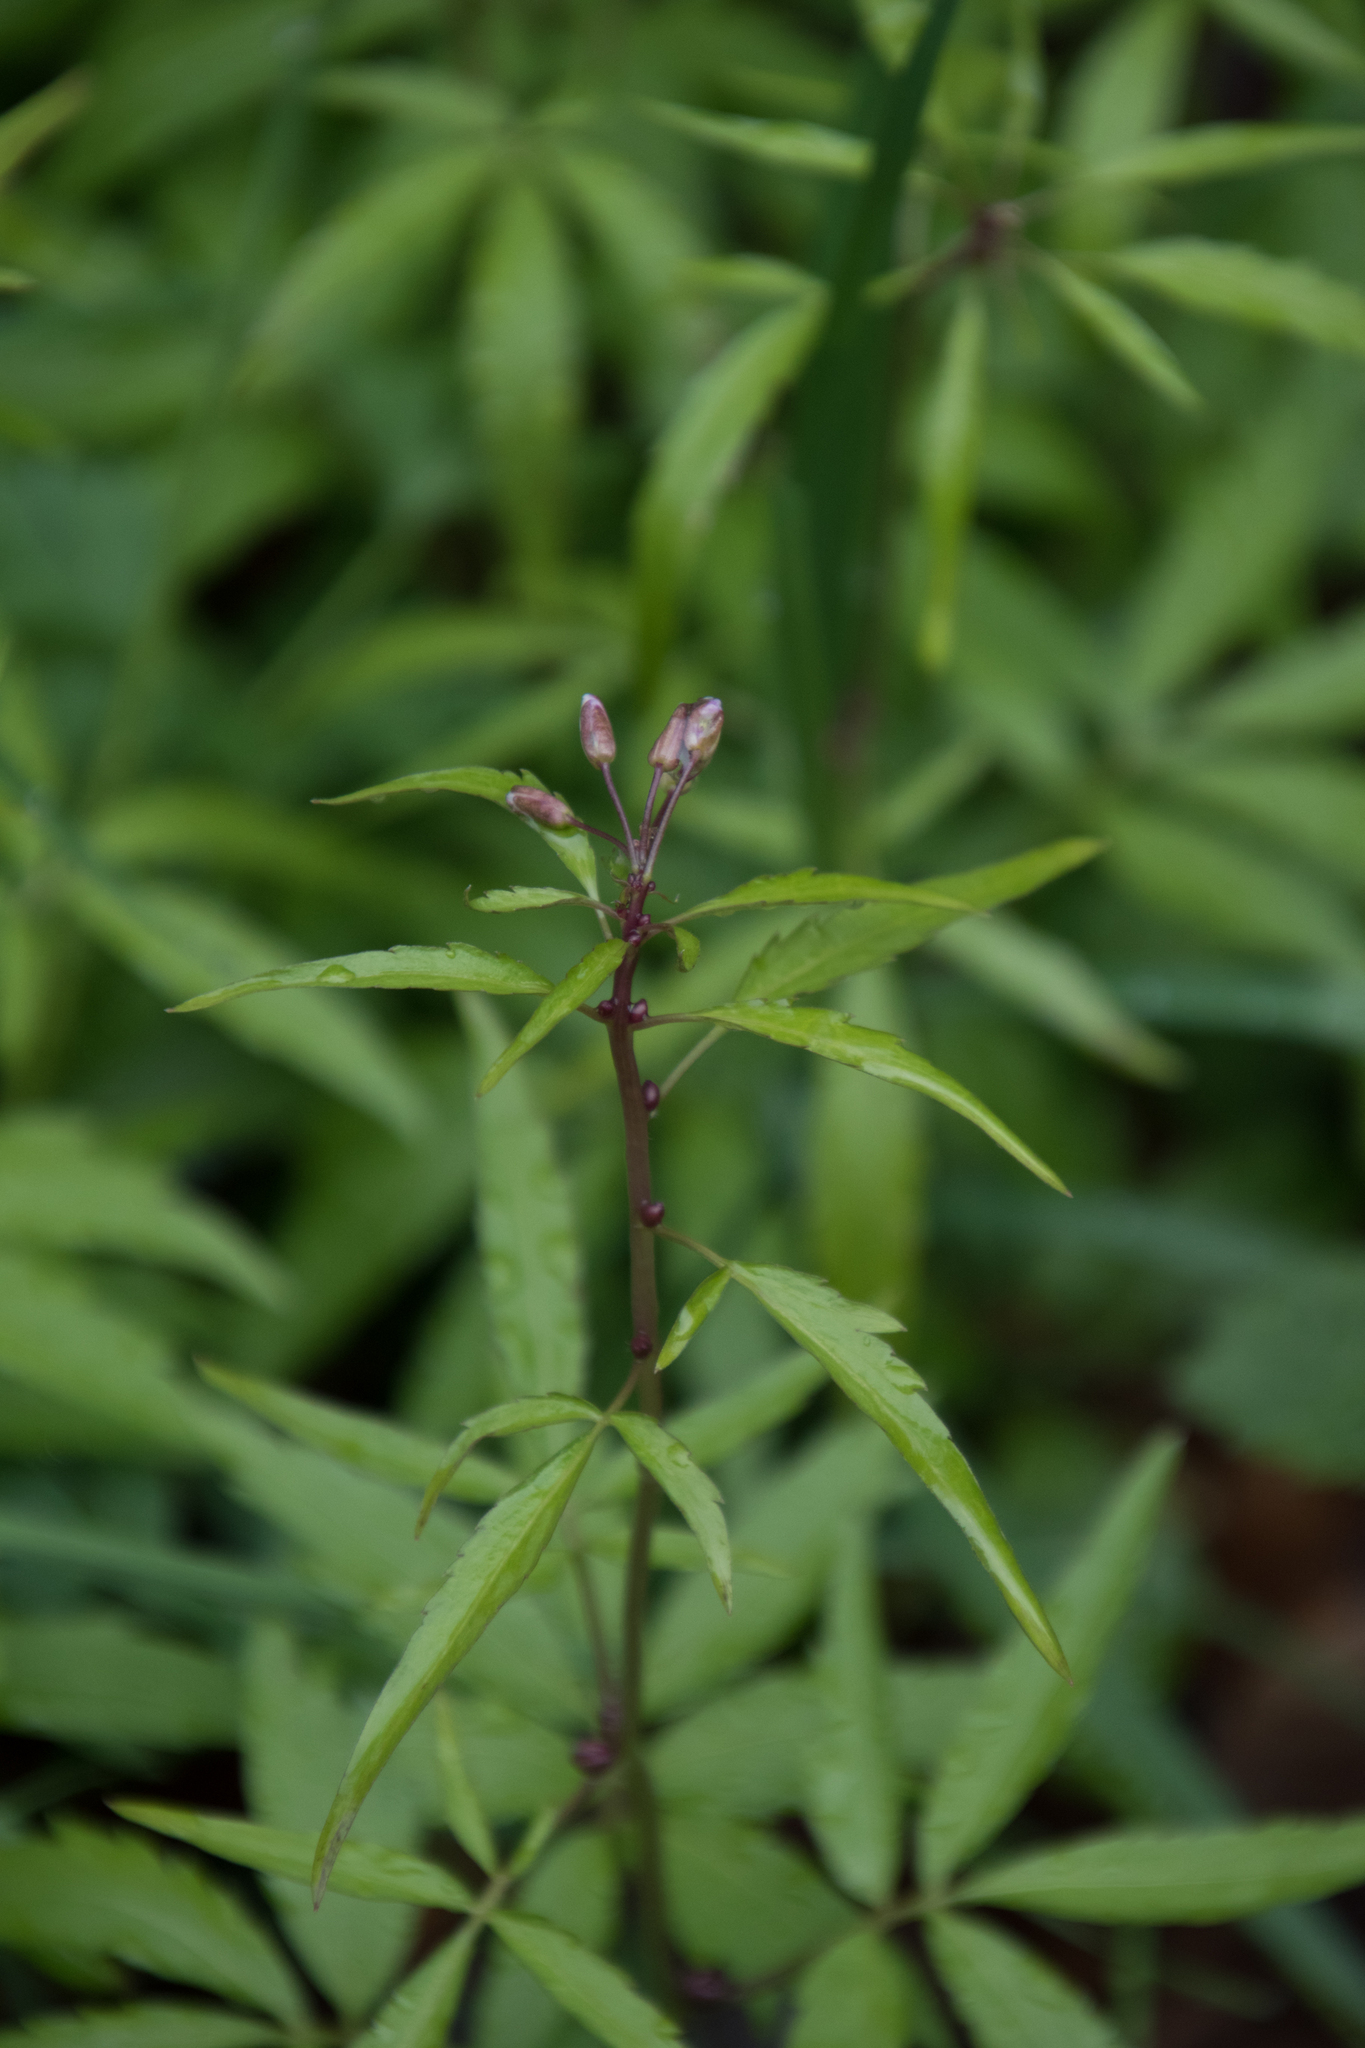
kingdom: Plantae
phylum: Tracheophyta
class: Magnoliopsida
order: Brassicales
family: Brassicaceae
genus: Cardamine
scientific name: Cardamine bulbifera
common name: Coralroot bittercress
